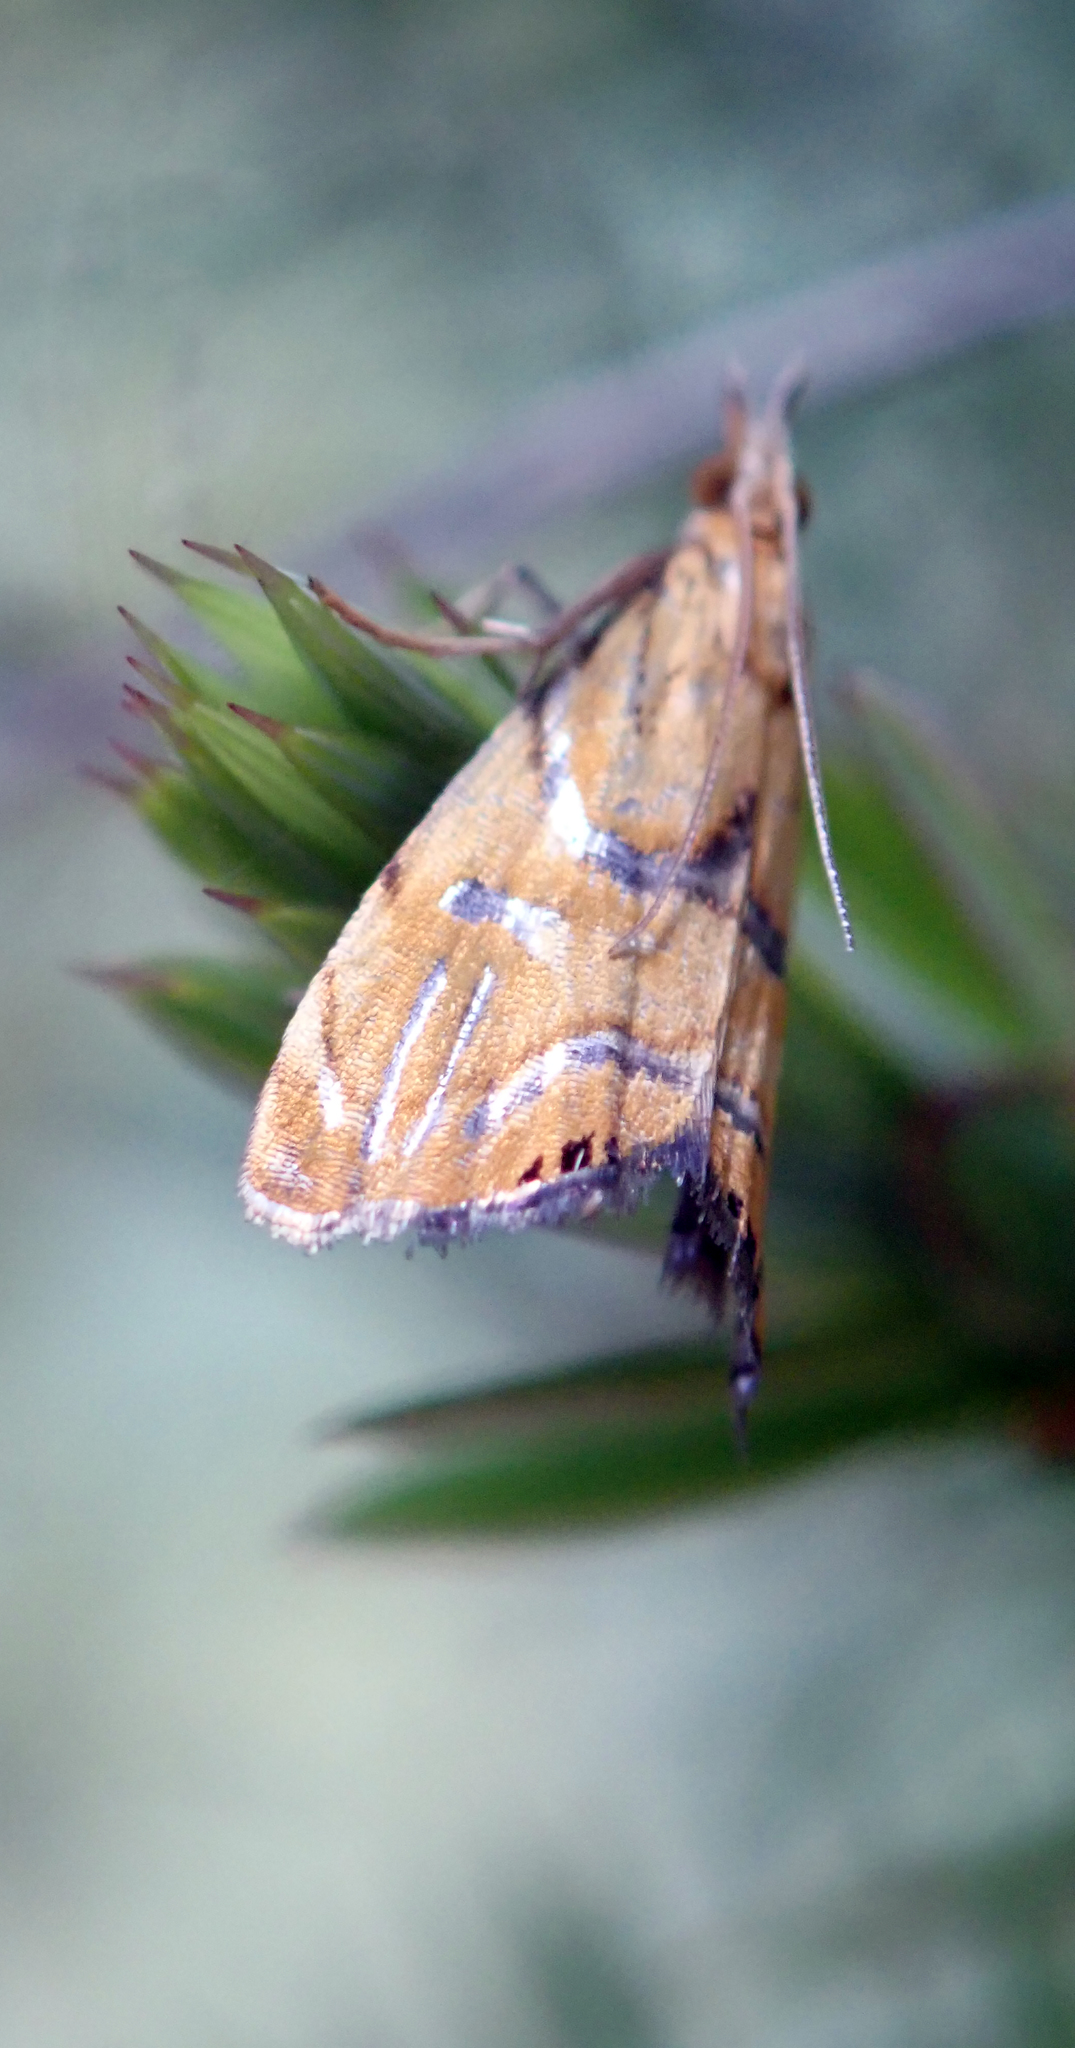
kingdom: Animalia
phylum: Arthropoda
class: Insecta
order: Lepidoptera
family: Crambidae
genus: Glaucocharis
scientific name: Glaucocharis auriscriptella
